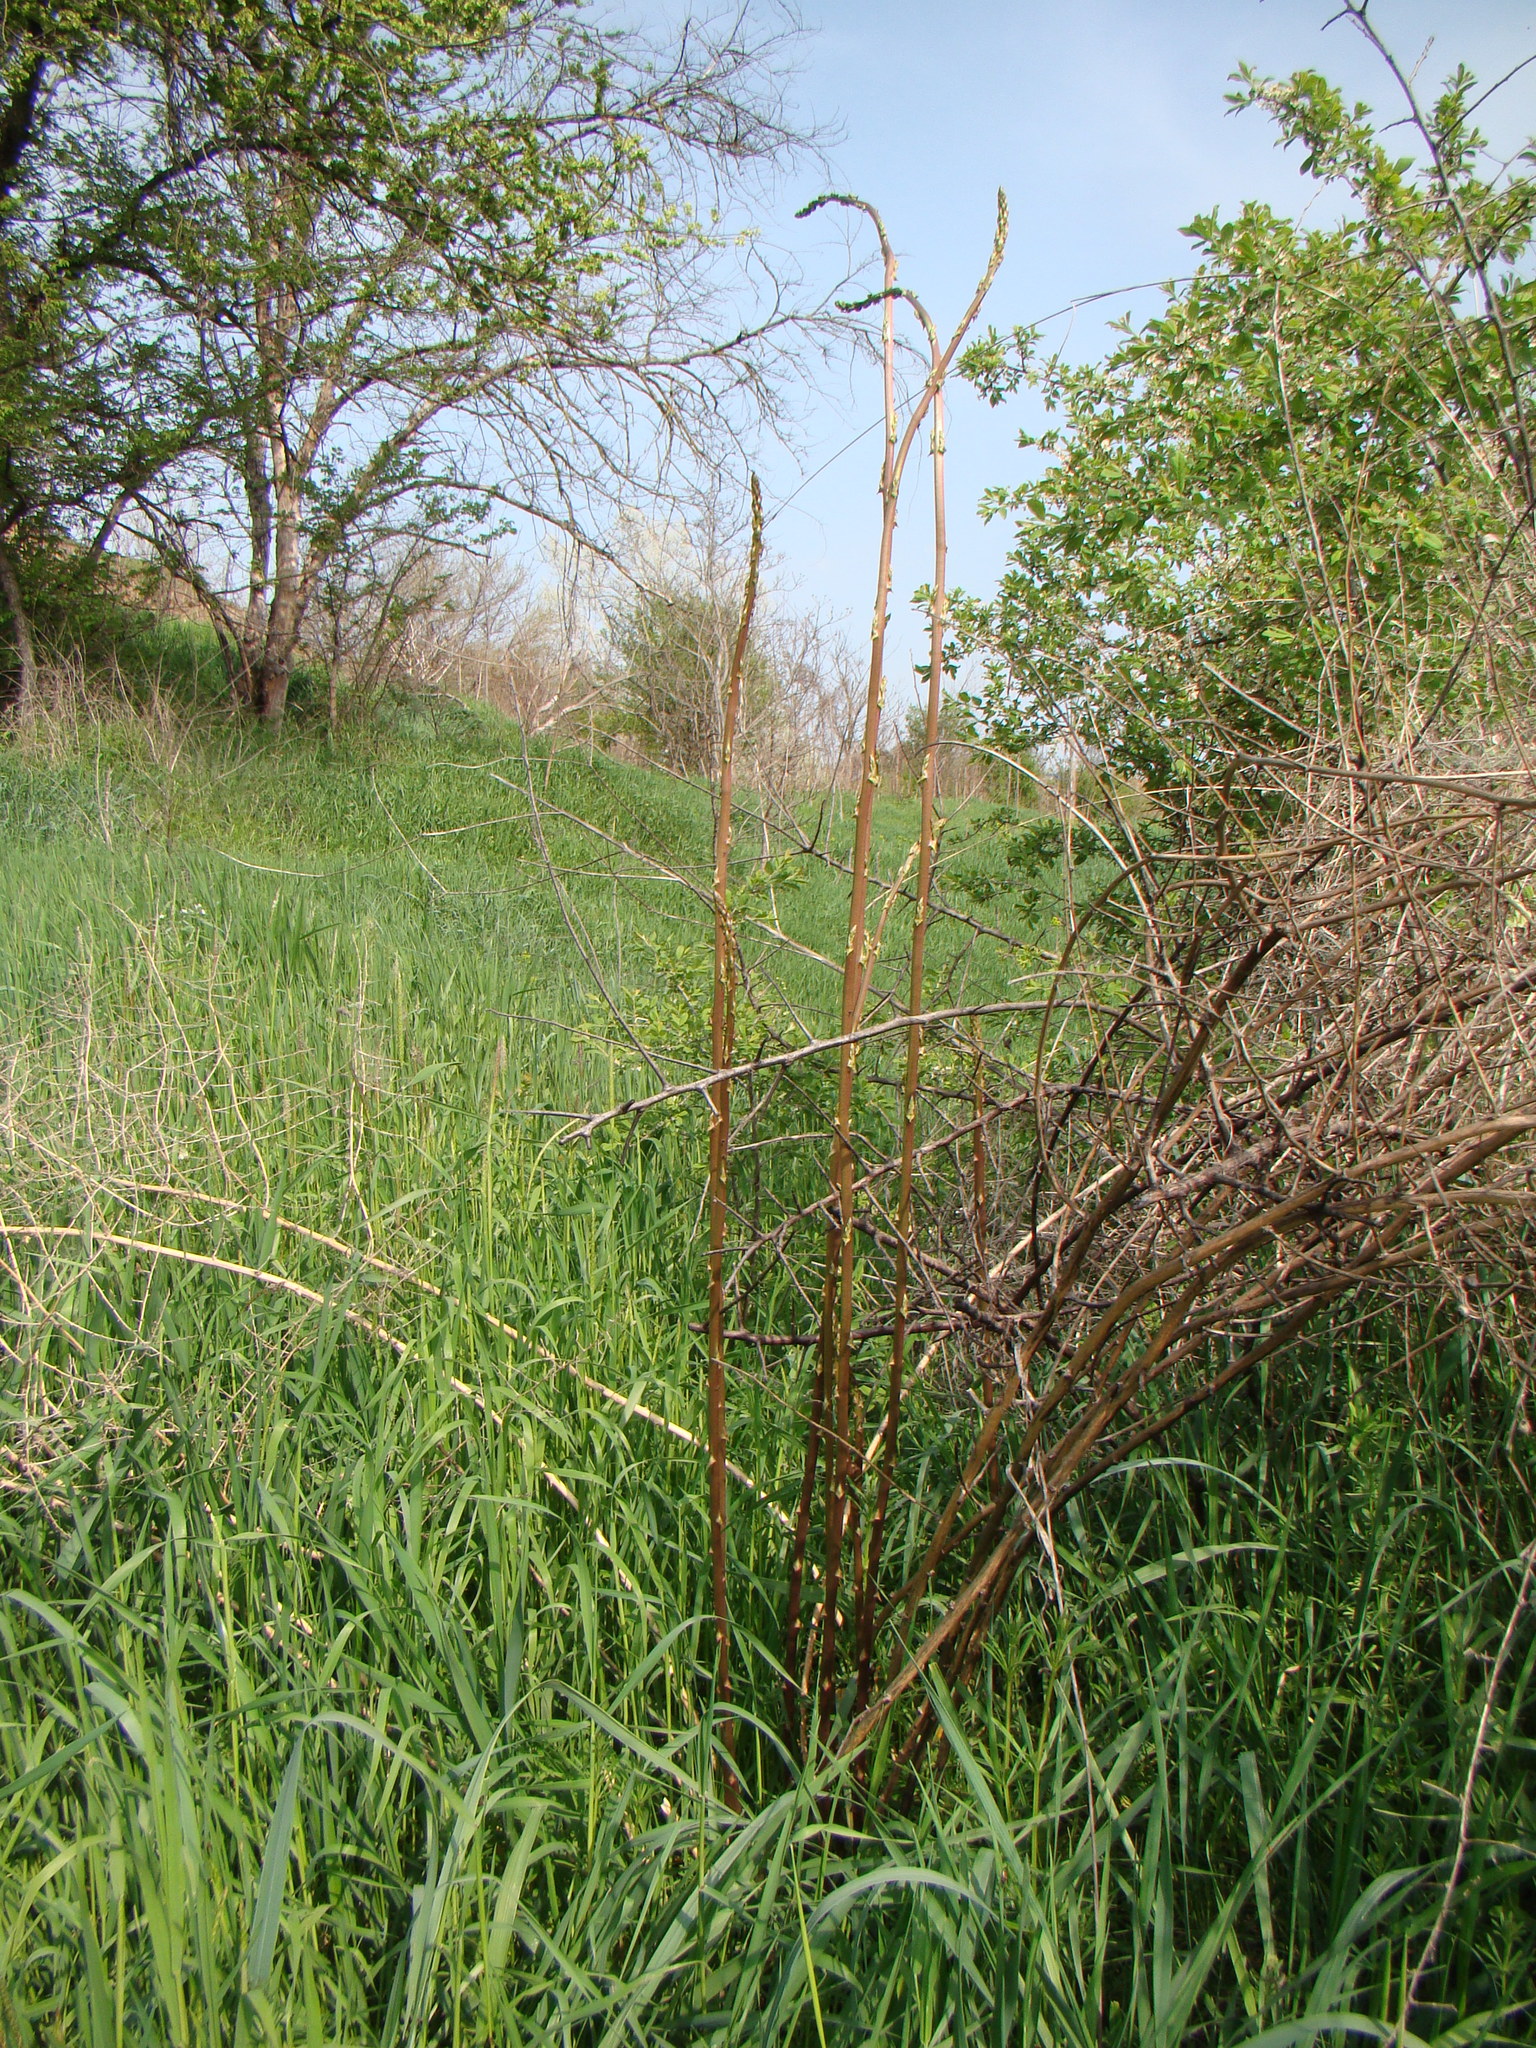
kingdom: Plantae
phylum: Tracheophyta
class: Liliopsida
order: Asparagales
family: Asparagaceae
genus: Asparagus
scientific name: Asparagus verticillatus
